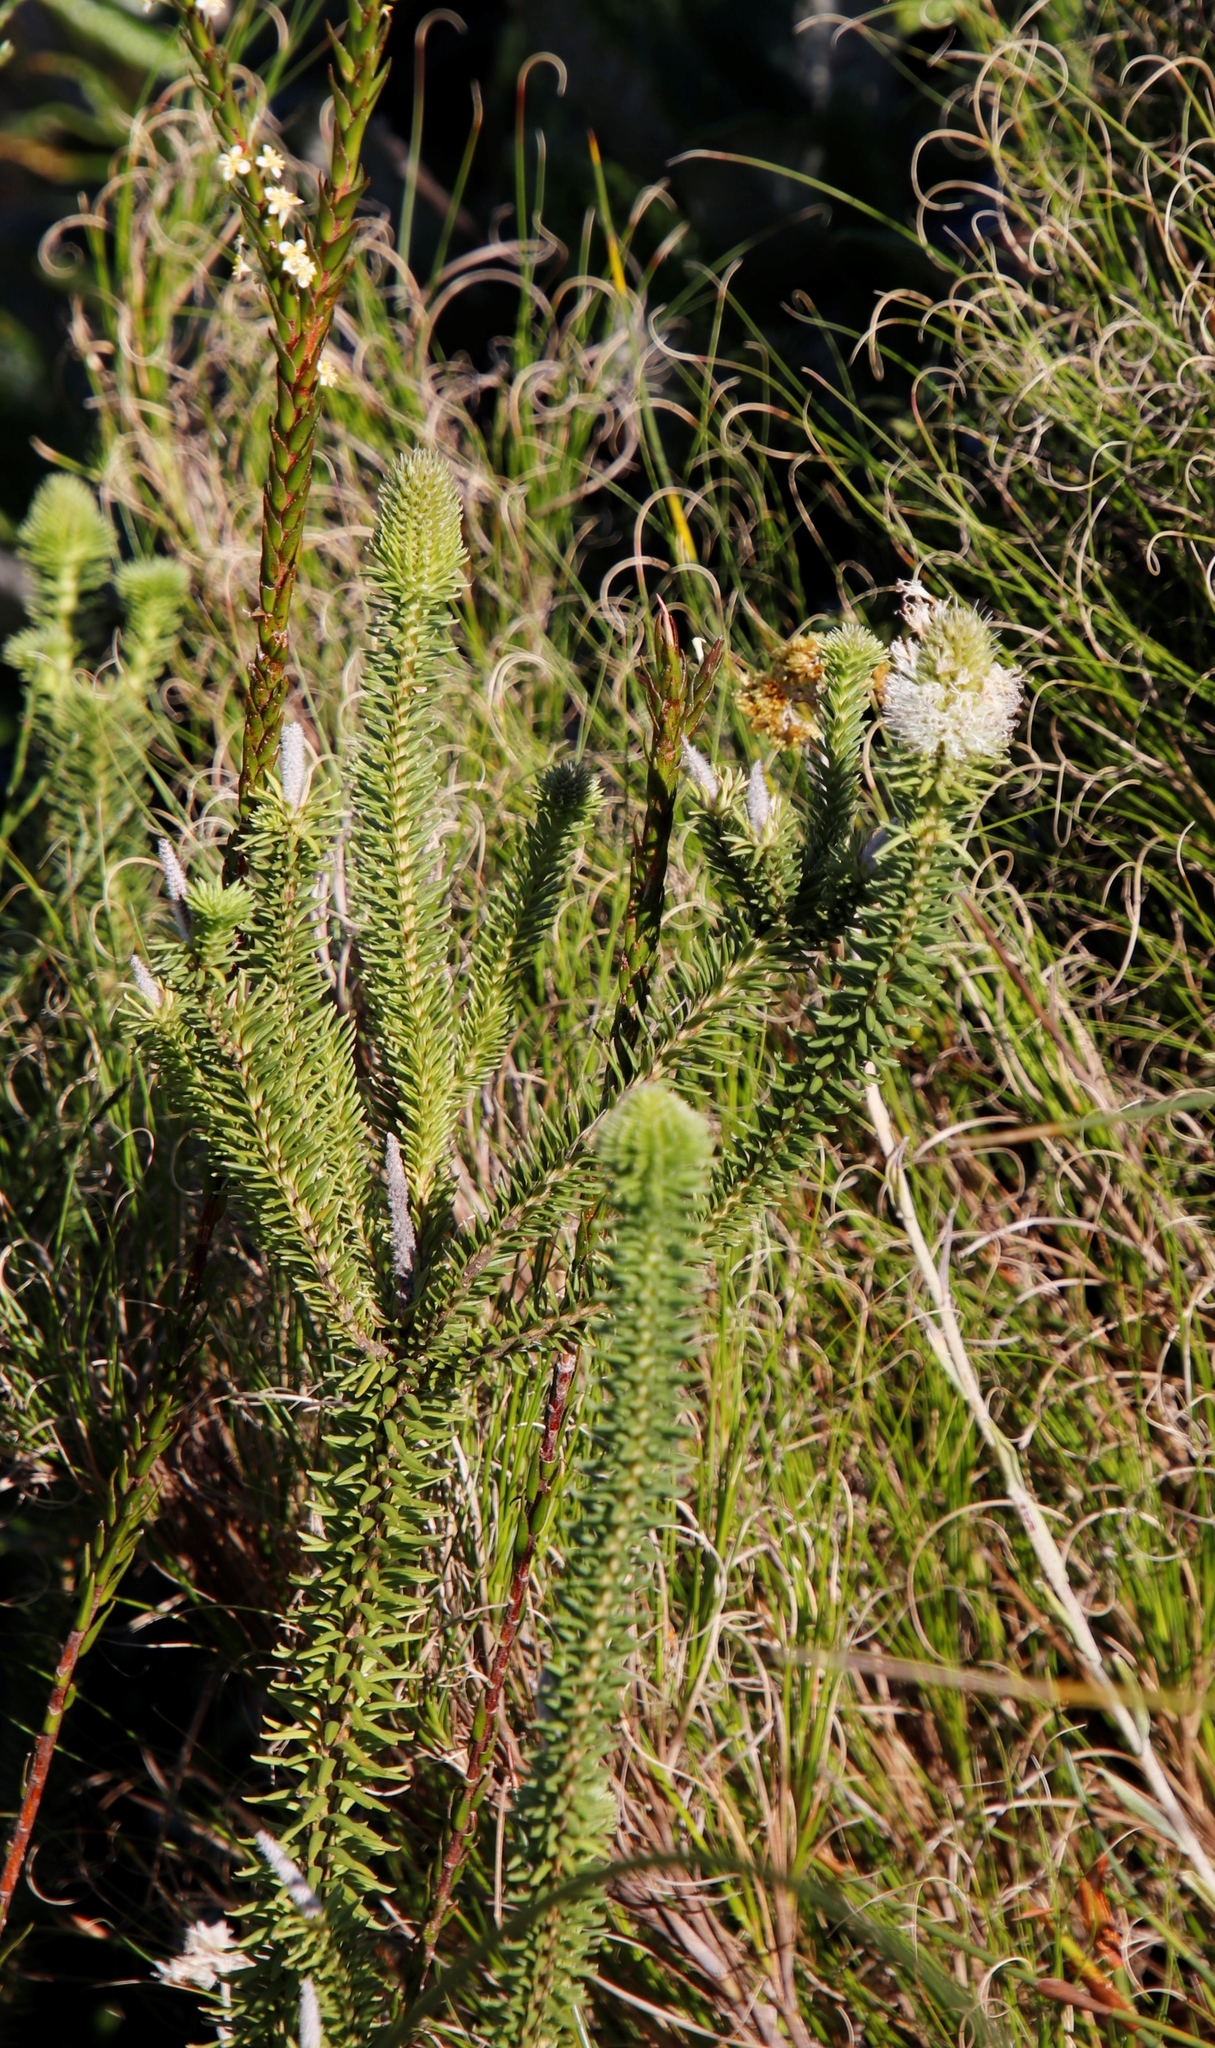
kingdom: Plantae
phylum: Tracheophyta
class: Magnoliopsida
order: Lamiales
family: Stilbaceae
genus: Stilbe
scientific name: Stilbe vestita
